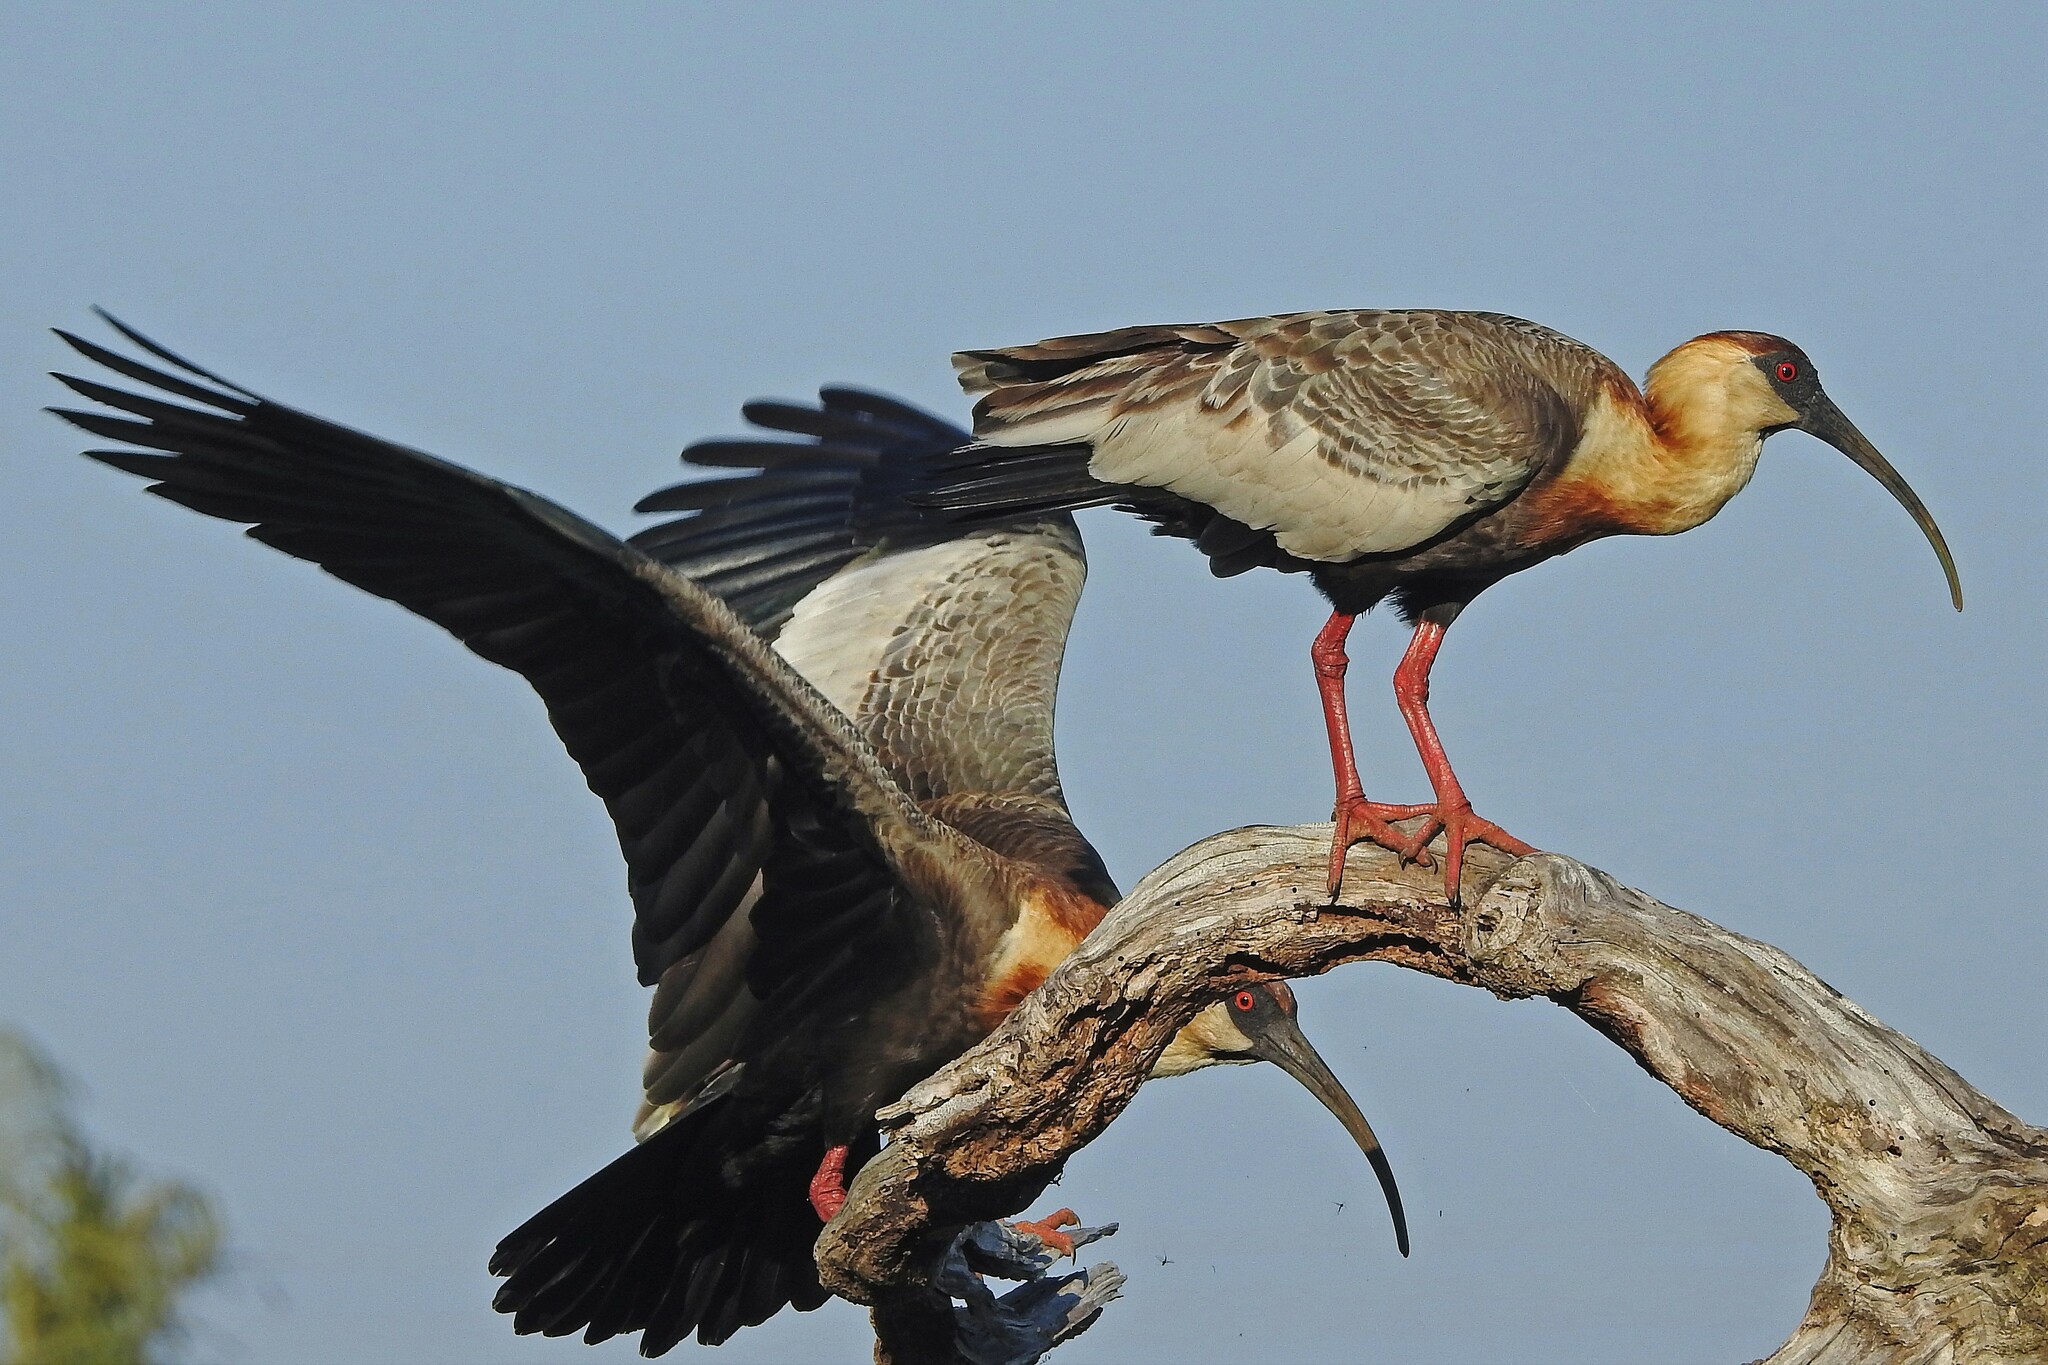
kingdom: Animalia
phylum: Chordata
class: Aves
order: Pelecaniformes
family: Threskiornithidae
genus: Theristicus
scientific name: Theristicus caudatus
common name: Buff-necked ibis
